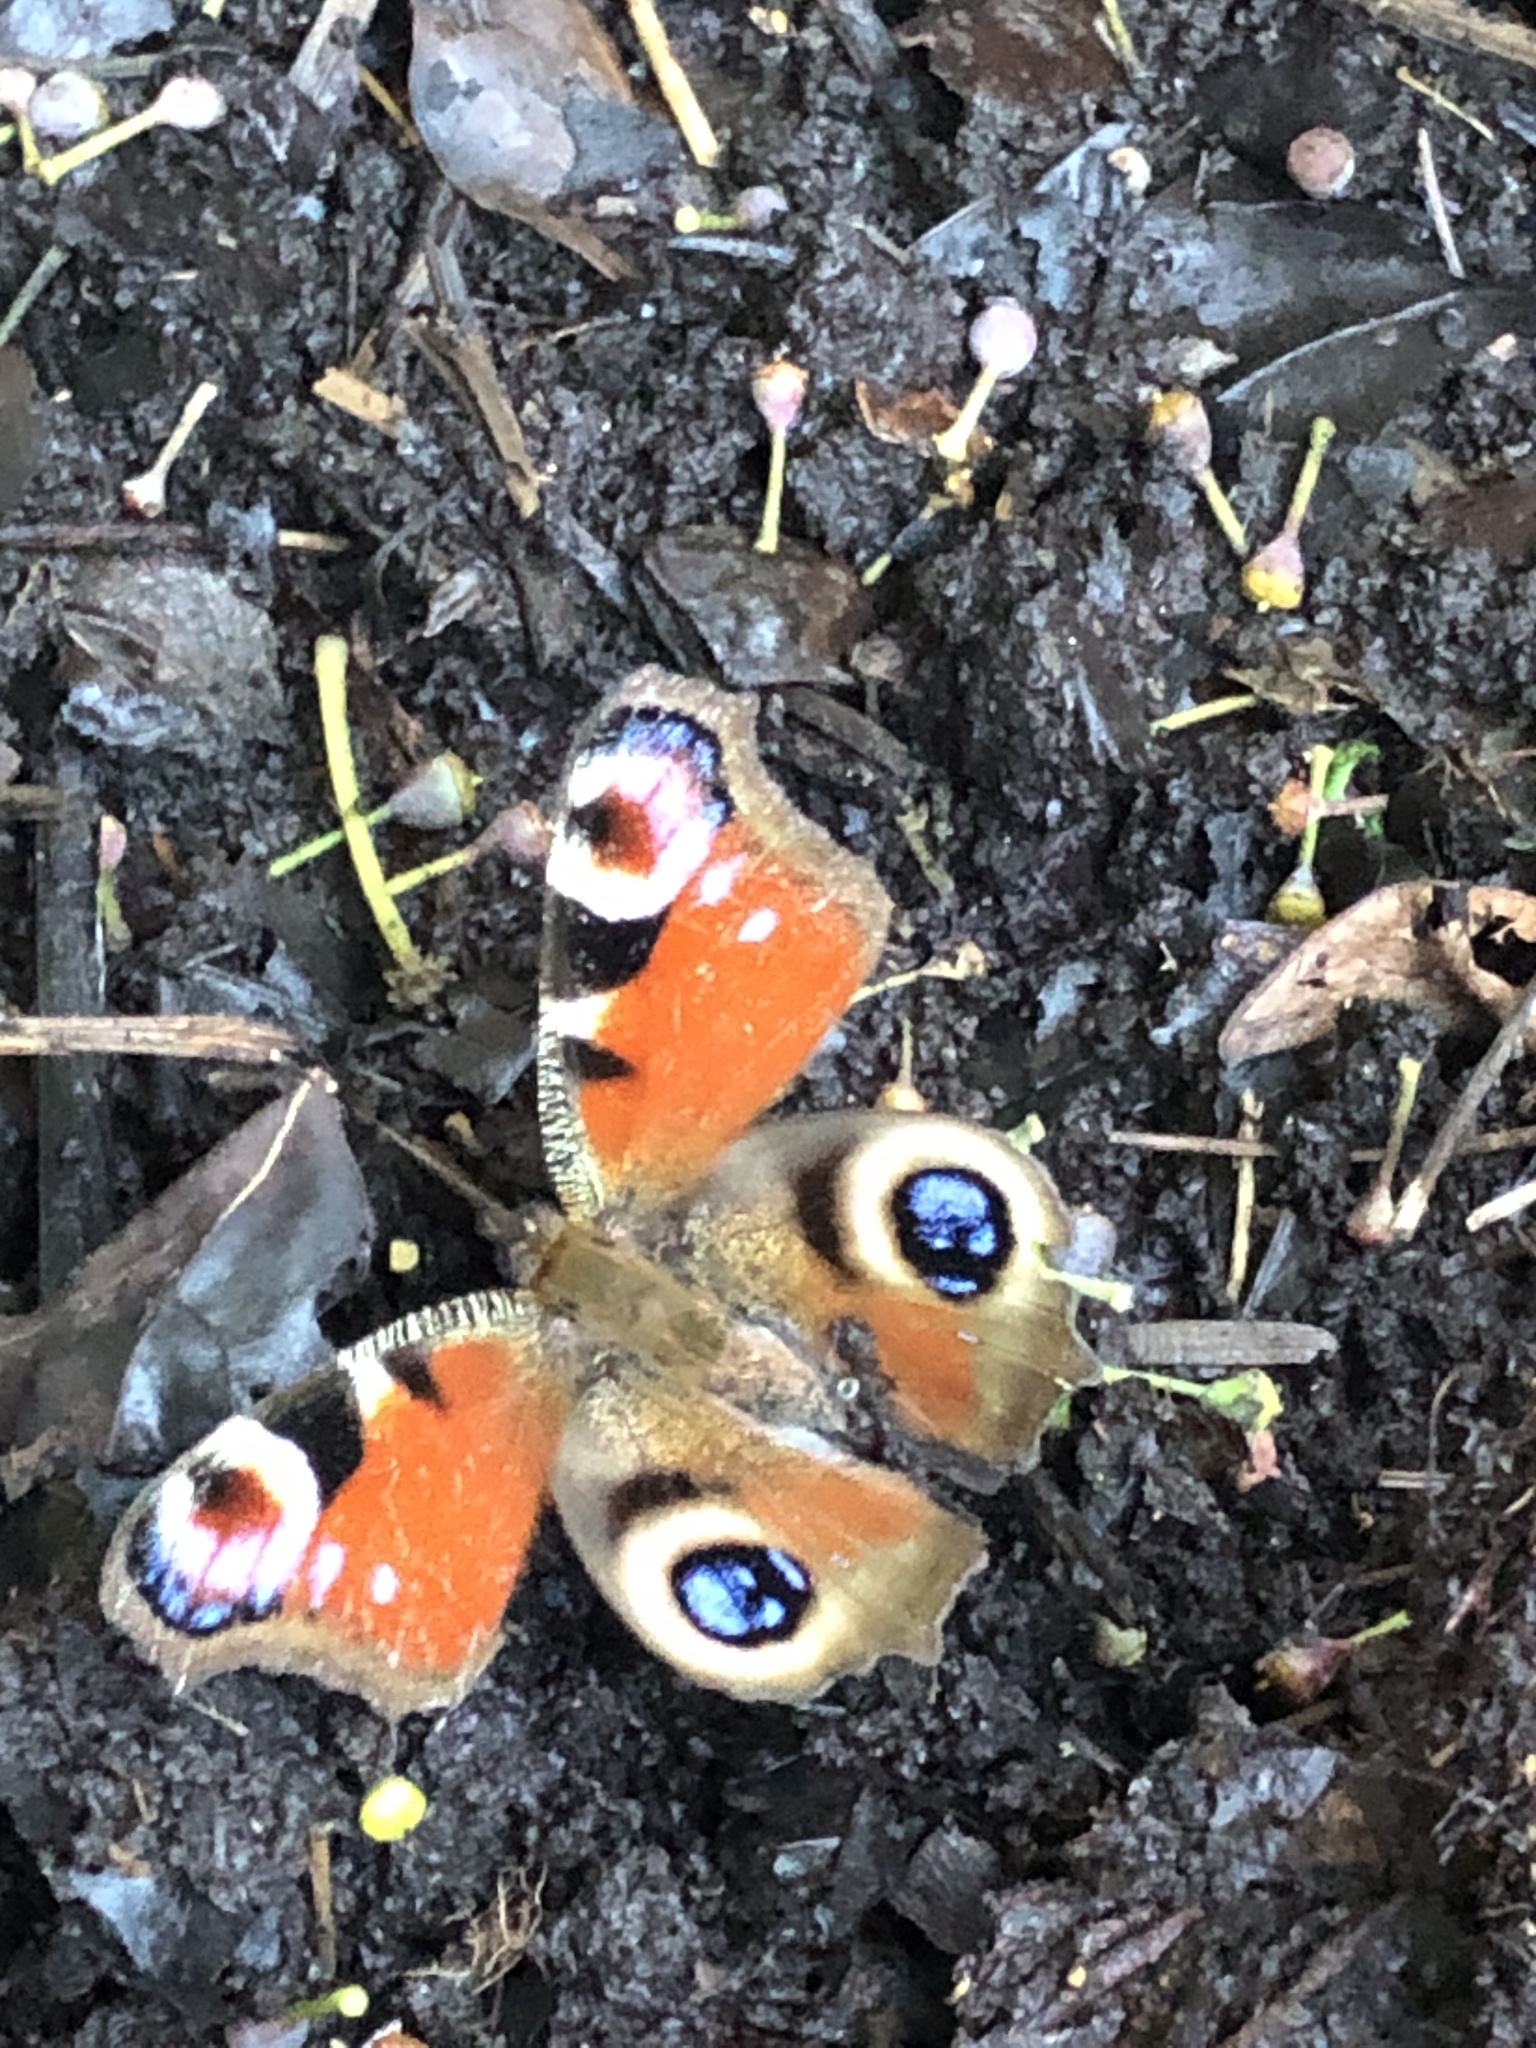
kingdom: Animalia
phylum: Arthropoda
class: Insecta
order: Lepidoptera
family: Nymphalidae
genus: Aglais
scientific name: Aglais io
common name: Peacock
